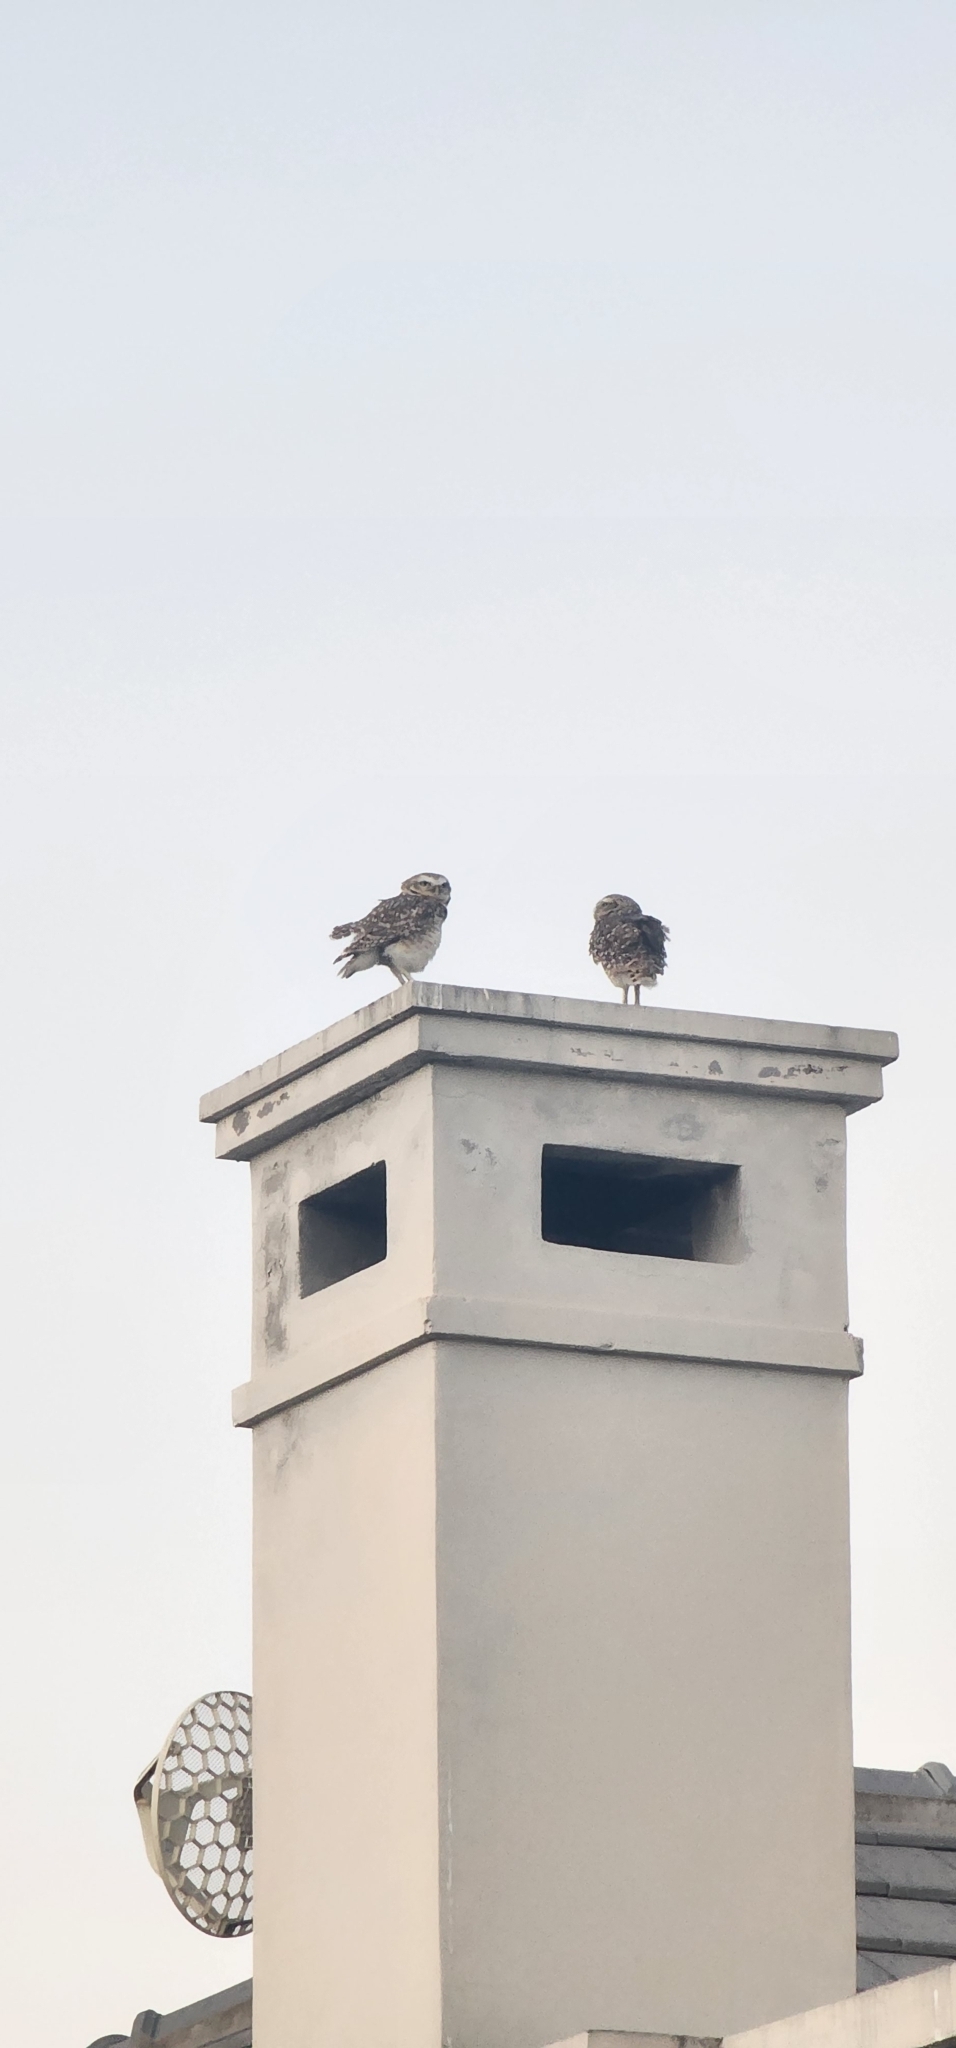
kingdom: Animalia
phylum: Chordata
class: Aves
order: Strigiformes
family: Strigidae
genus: Athene
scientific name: Athene cunicularia
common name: Burrowing owl
